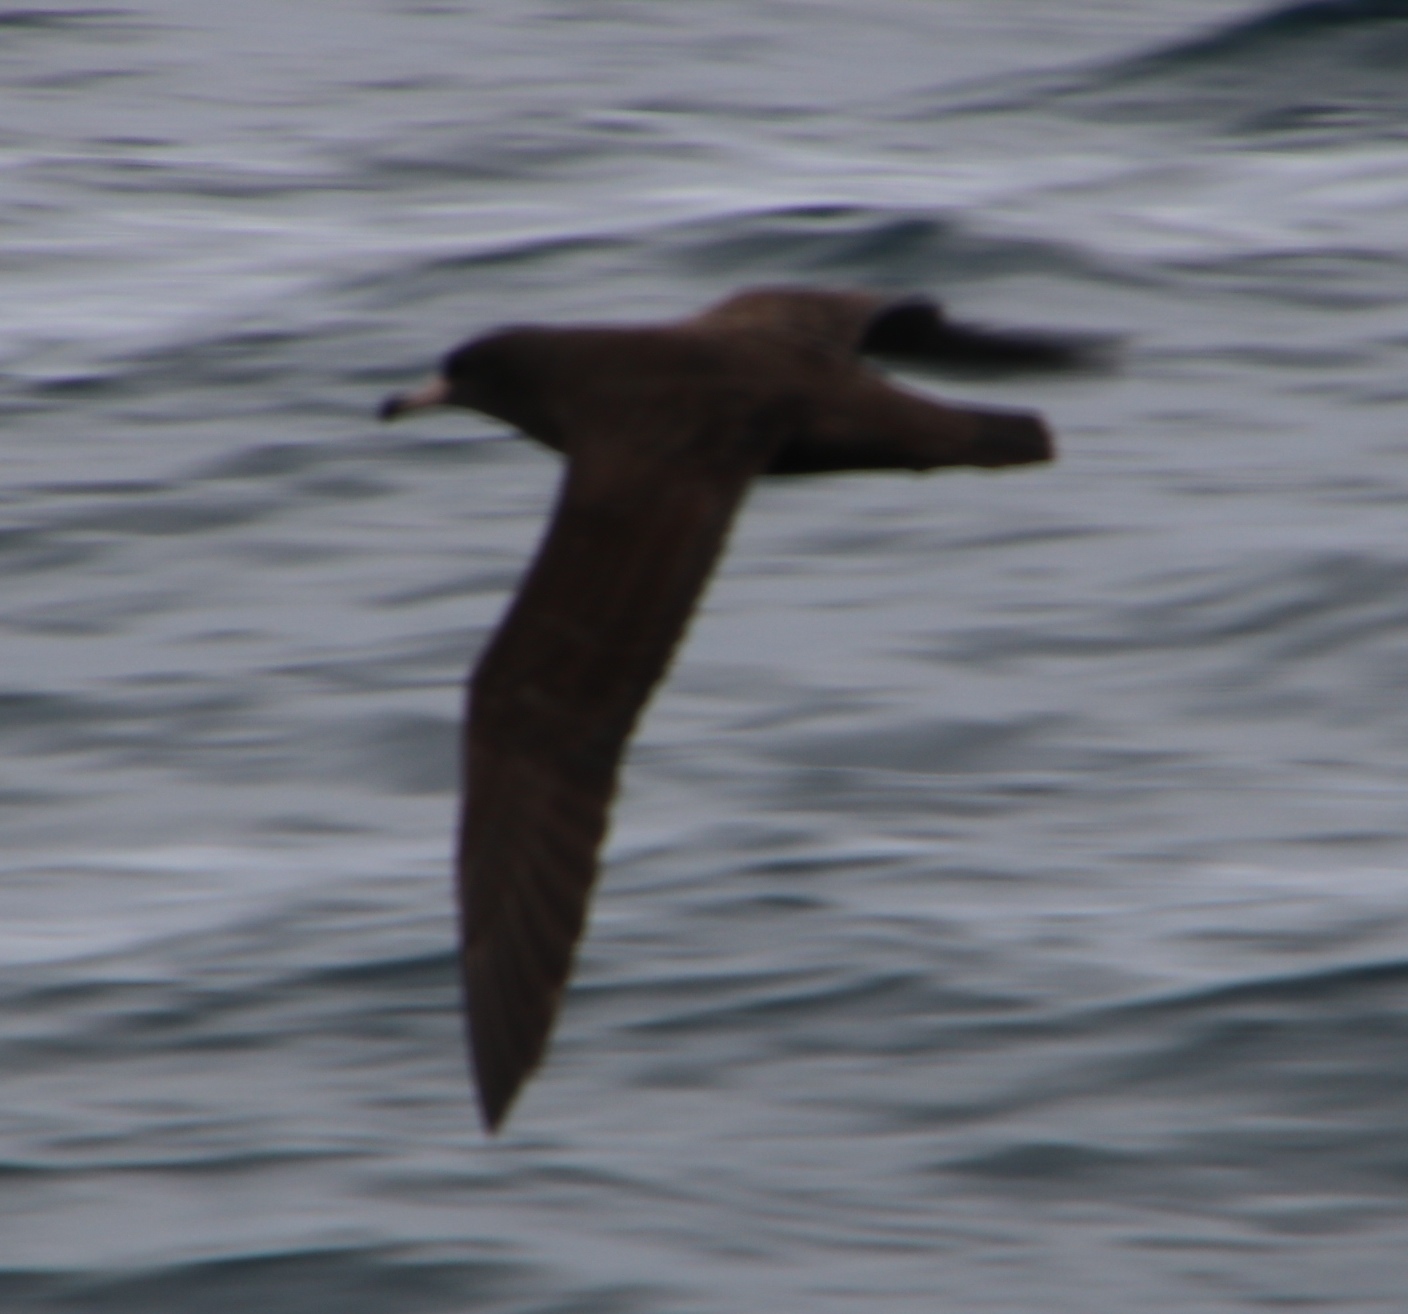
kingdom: Animalia
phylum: Chordata
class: Aves
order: Procellariiformes
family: Procellariidae
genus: Puffinus
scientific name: Puffinus carneipes
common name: Flesh-footed shearwater
